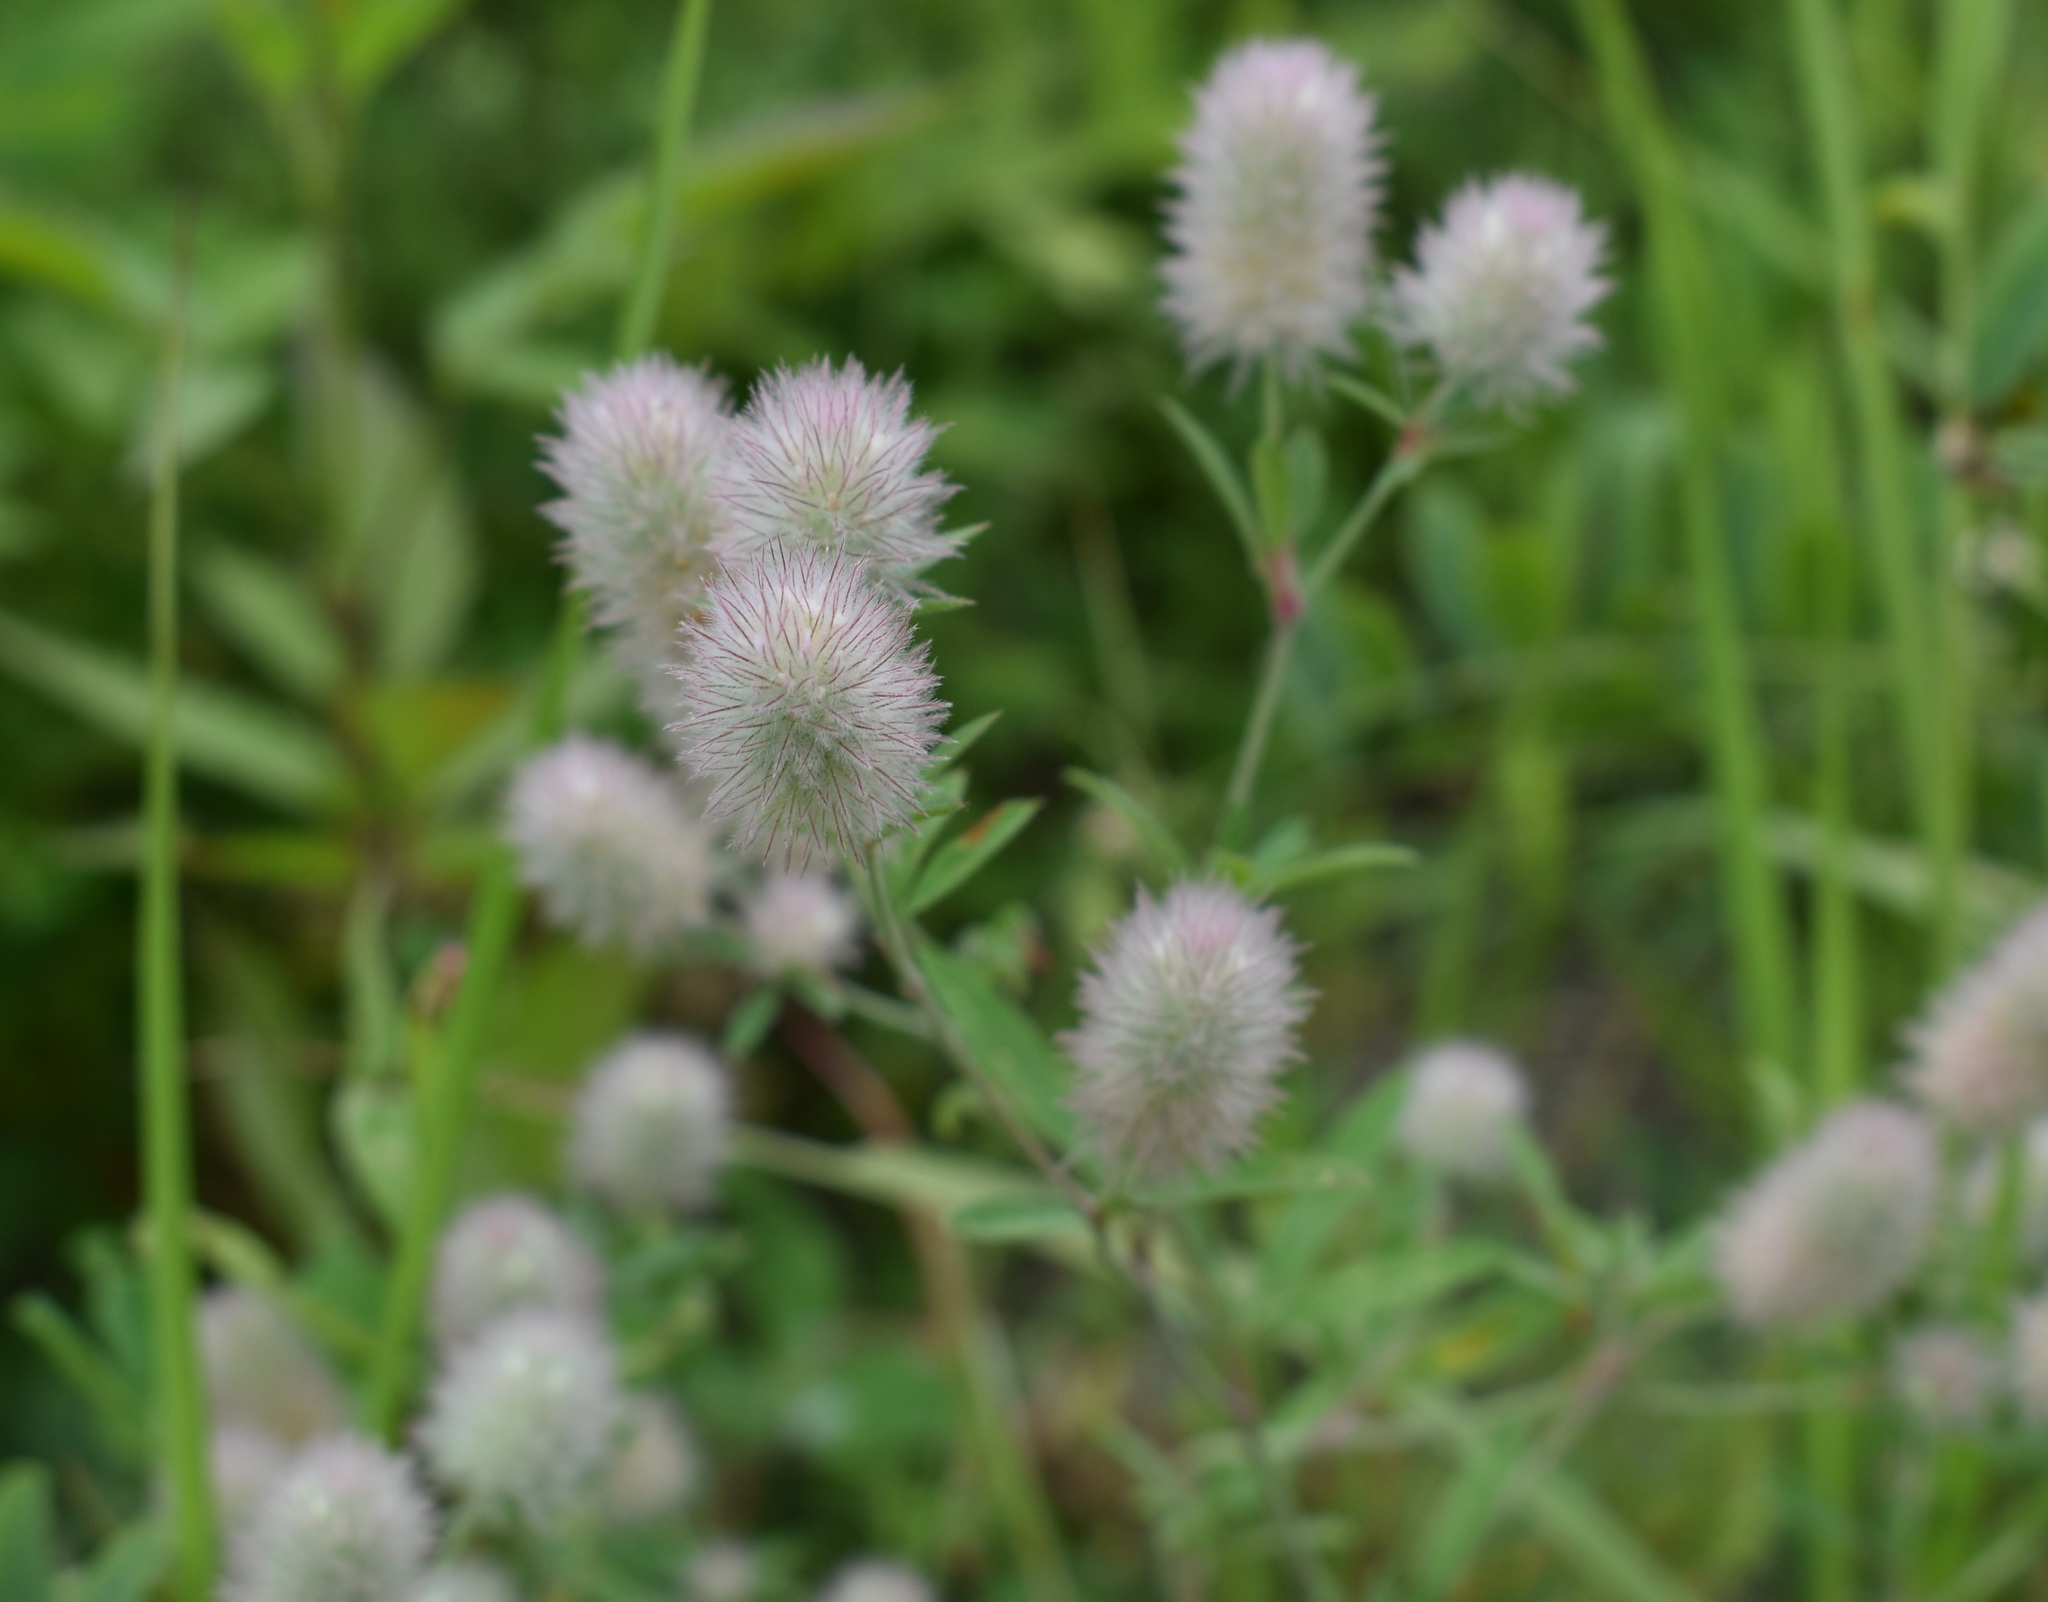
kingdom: Plantae
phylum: Tracheophyta
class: Magnoliopsida
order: Fabales
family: Fabaceae
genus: Trifolium
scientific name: Trifolium arvense
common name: Hare's-foot clover
